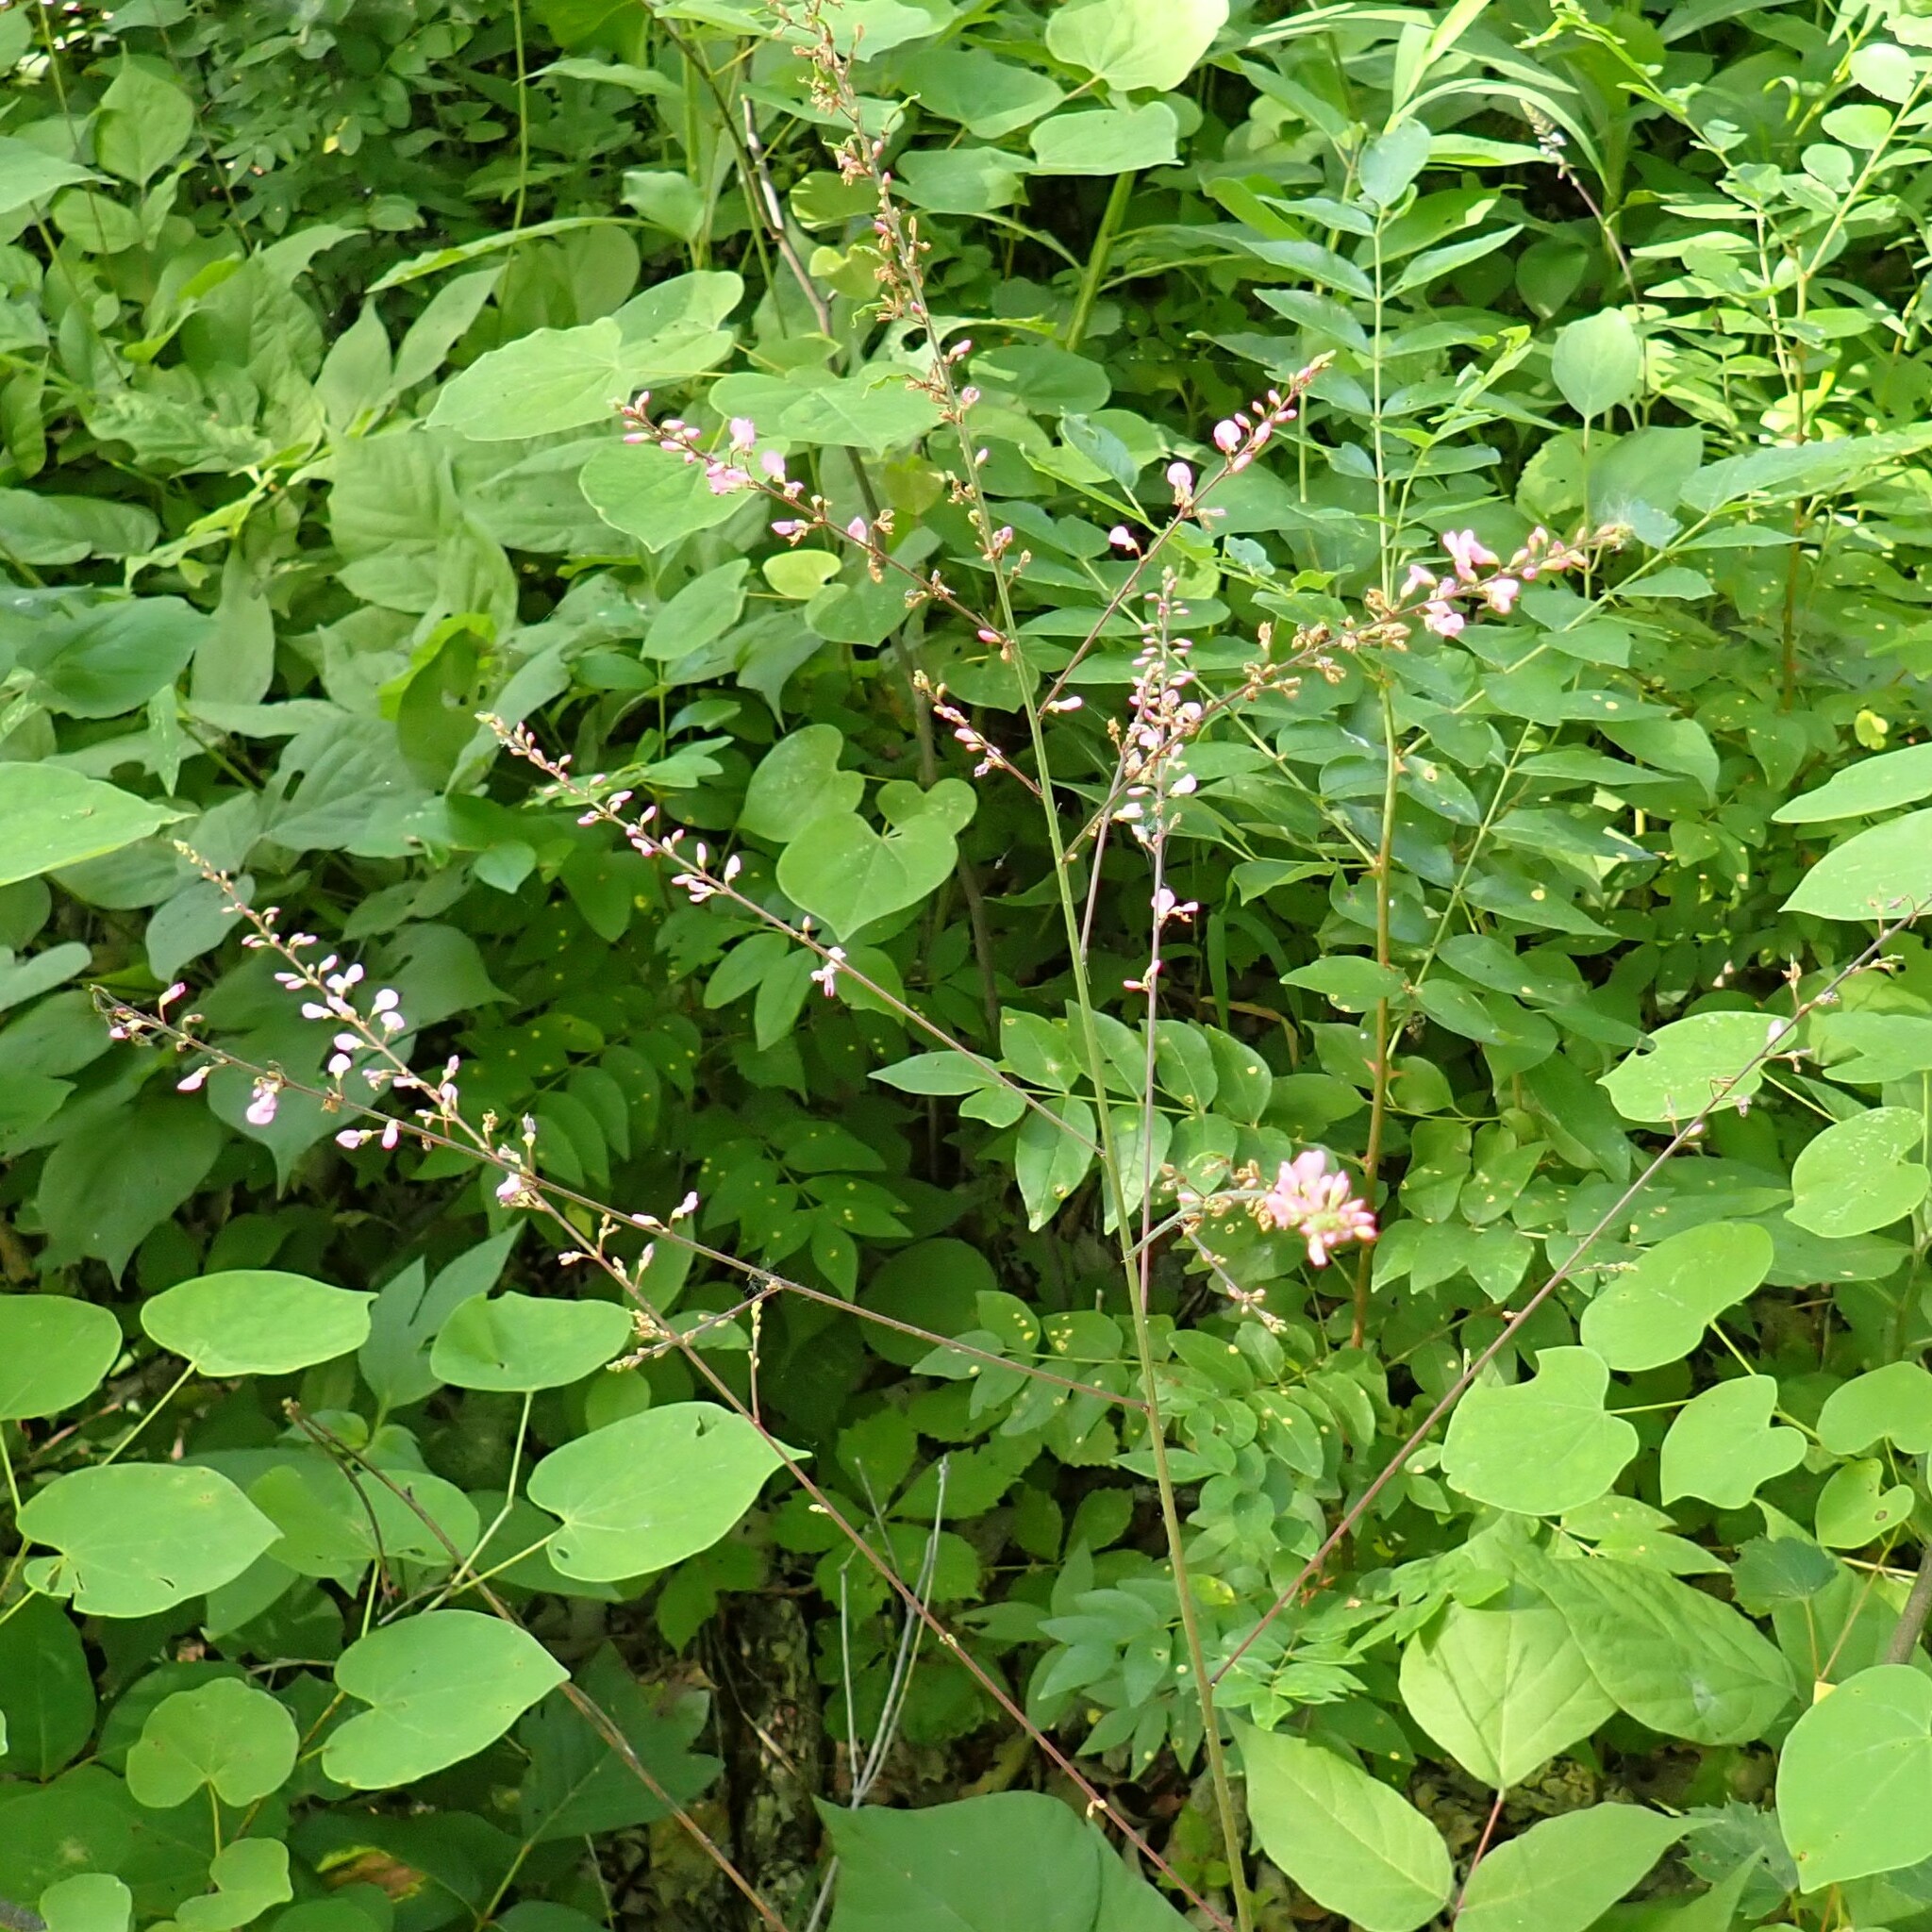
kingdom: Plantae
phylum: Tracheophyta
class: Magnoliopsida
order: Fabales
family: Fabaceae
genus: Hylodesmum
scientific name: Hylodesmum glutinosum
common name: Clustered-leaved tick-trefoil
